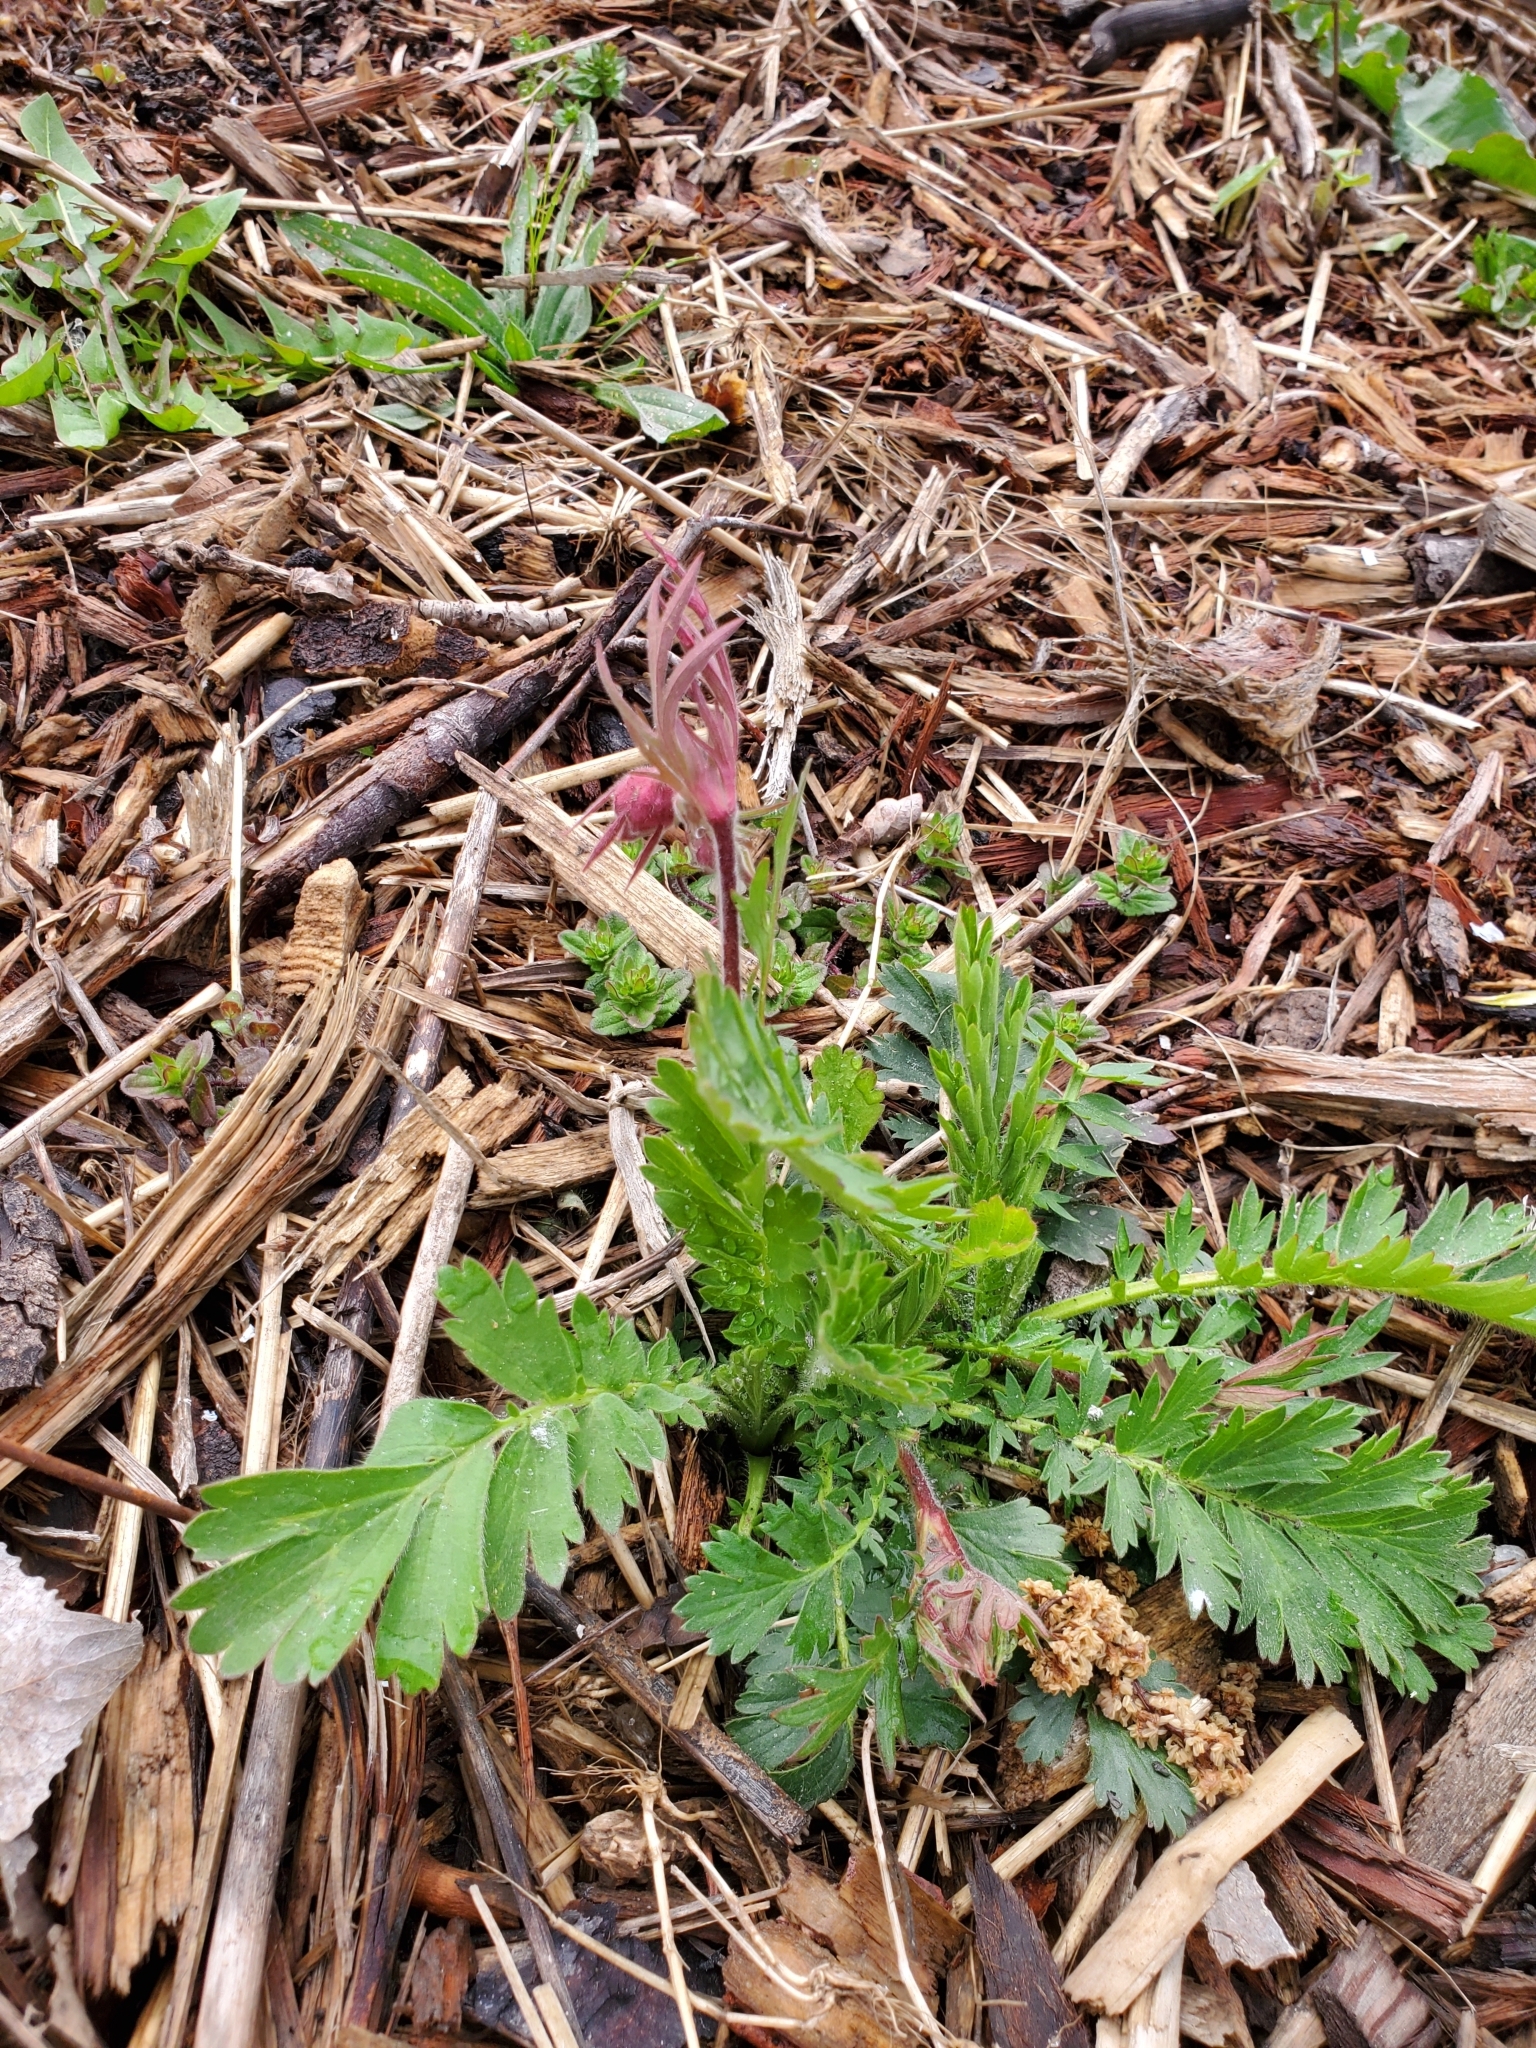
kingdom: Plantae
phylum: Tracheophyta
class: Magnoliopsida
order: Rosales
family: Rosaceae
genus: Geum
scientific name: Geum triflorum
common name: Old man's whiskers
